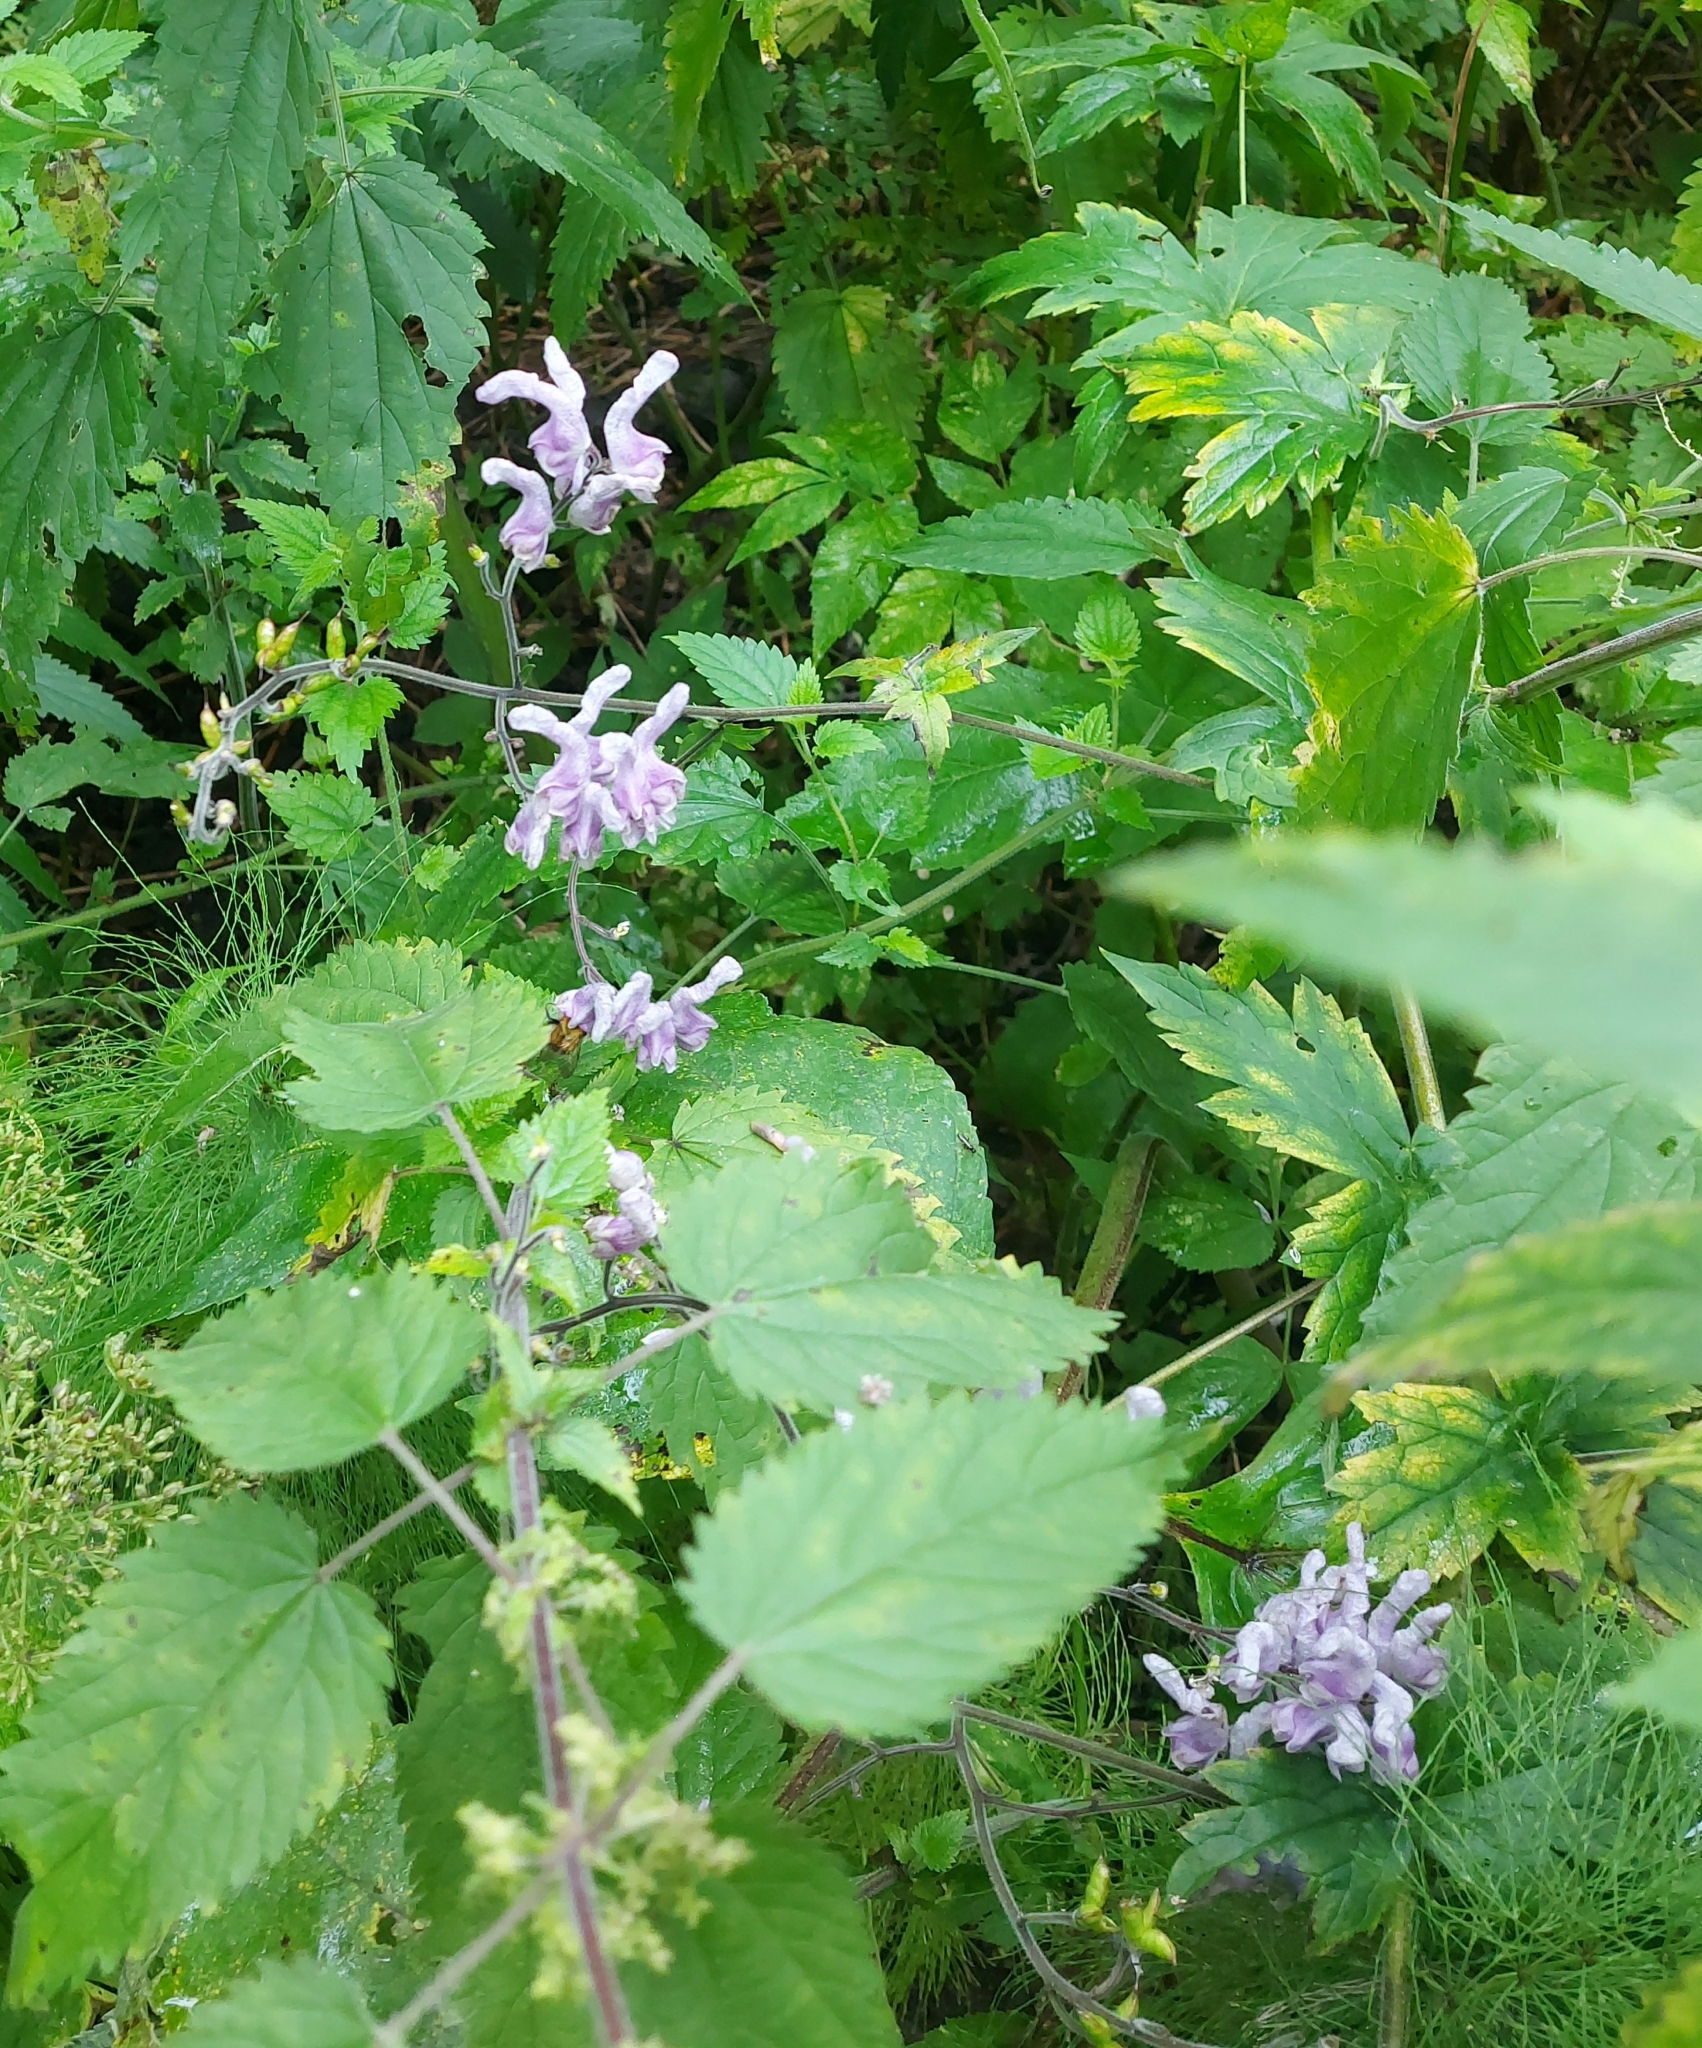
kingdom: Plantae
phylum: Tracheophyta
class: Magnoliopsida
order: Ranunculales
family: Ranunculaceae
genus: Aconitum
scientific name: Aconitum septentrionale
